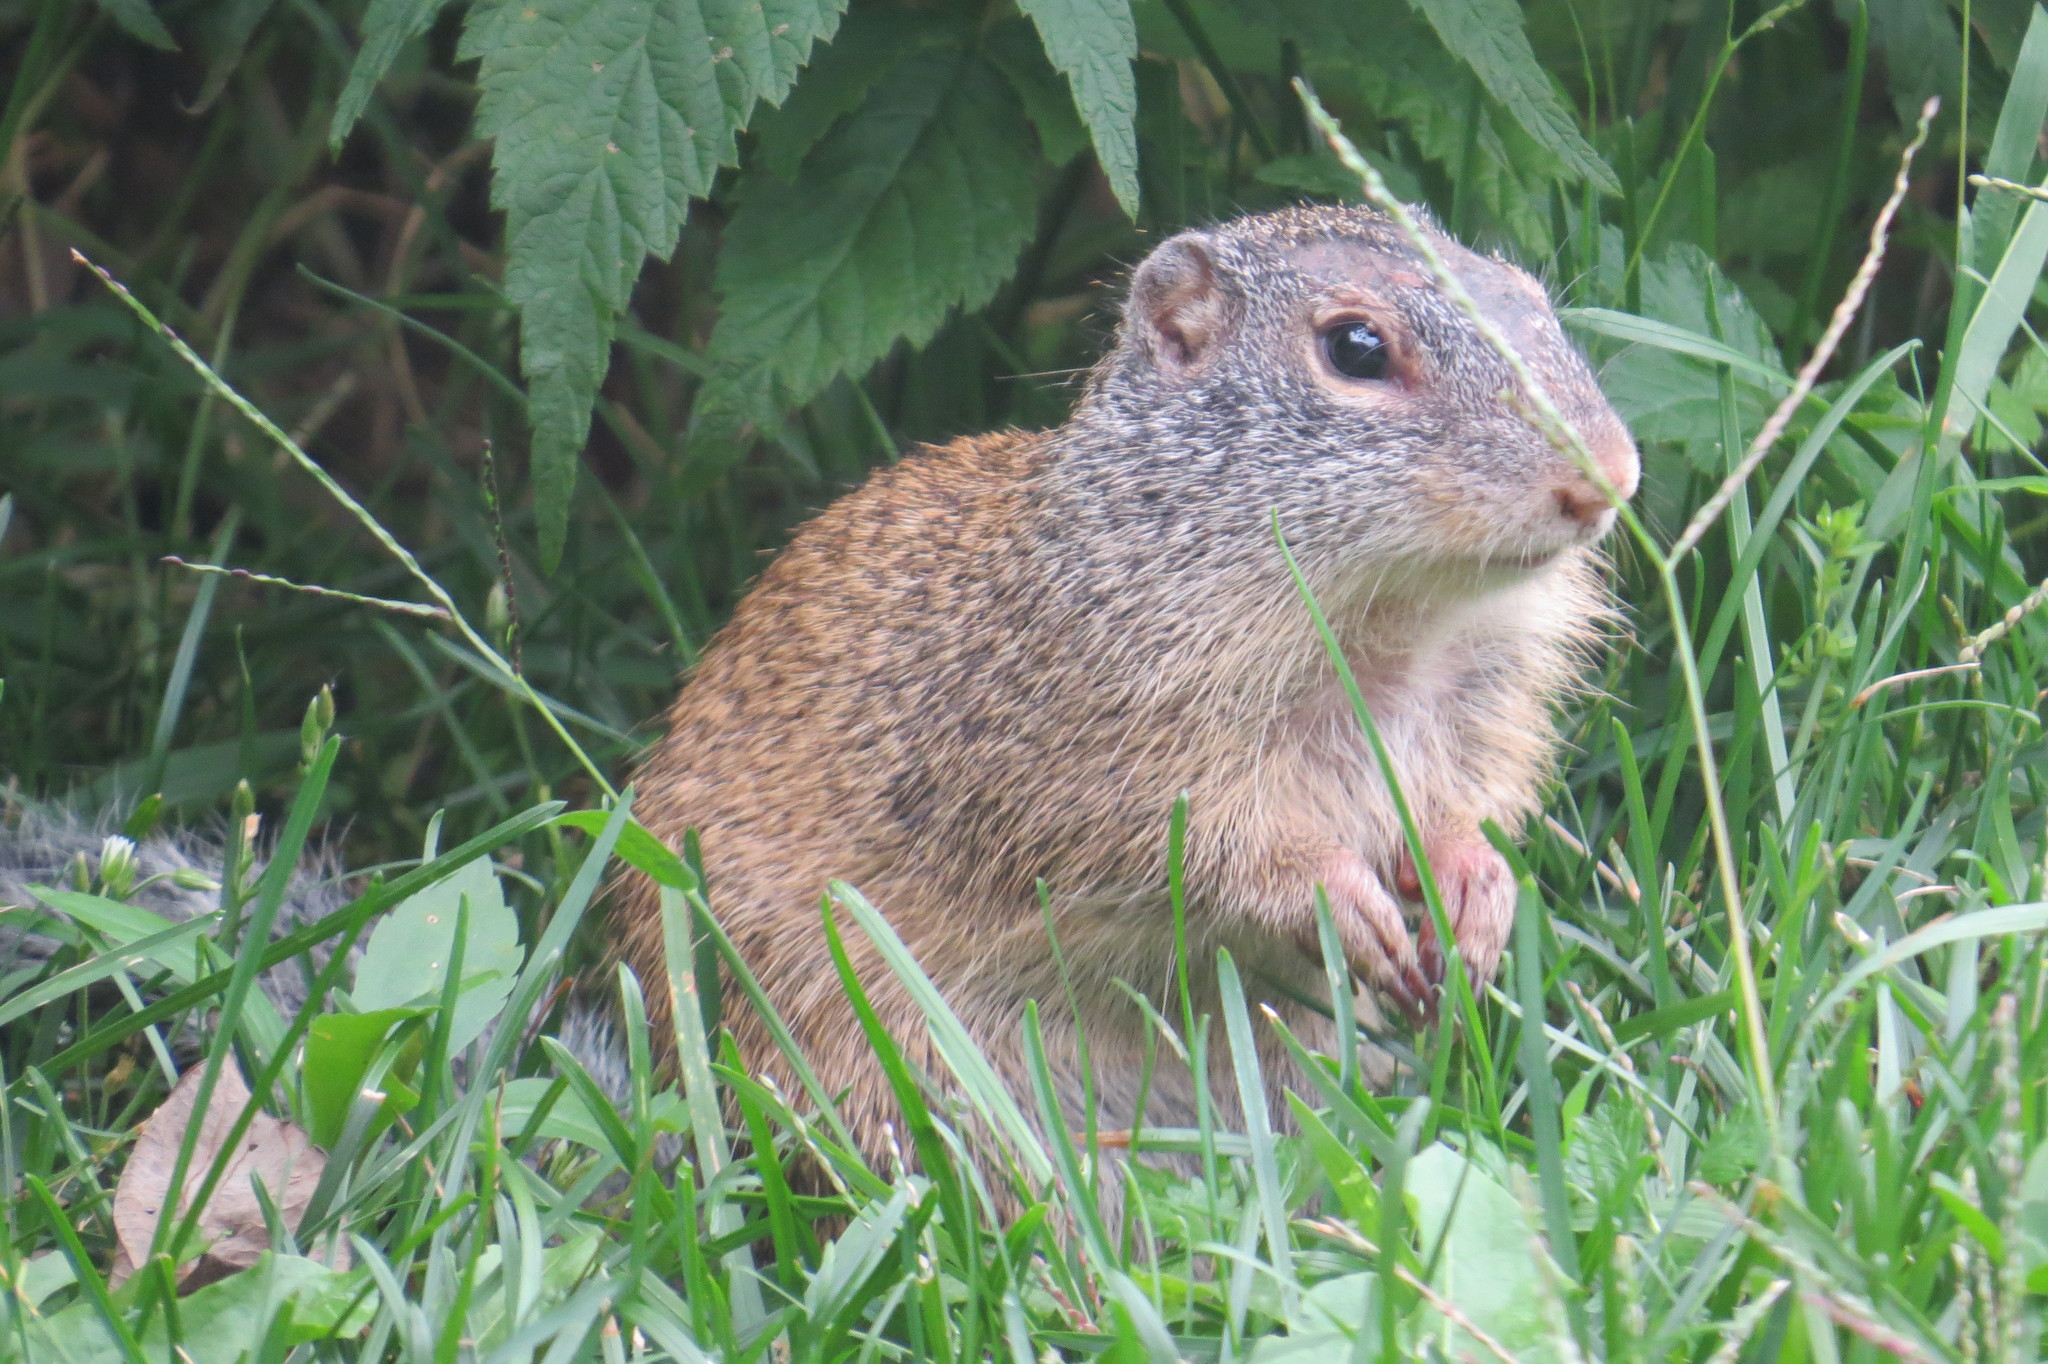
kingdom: Animalia
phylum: Chordata
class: Mammalia
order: Rodentia
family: Sciuridae
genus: Poliocitellus
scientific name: Poliocitellus franklinii
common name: Franklin's ground squirrel
